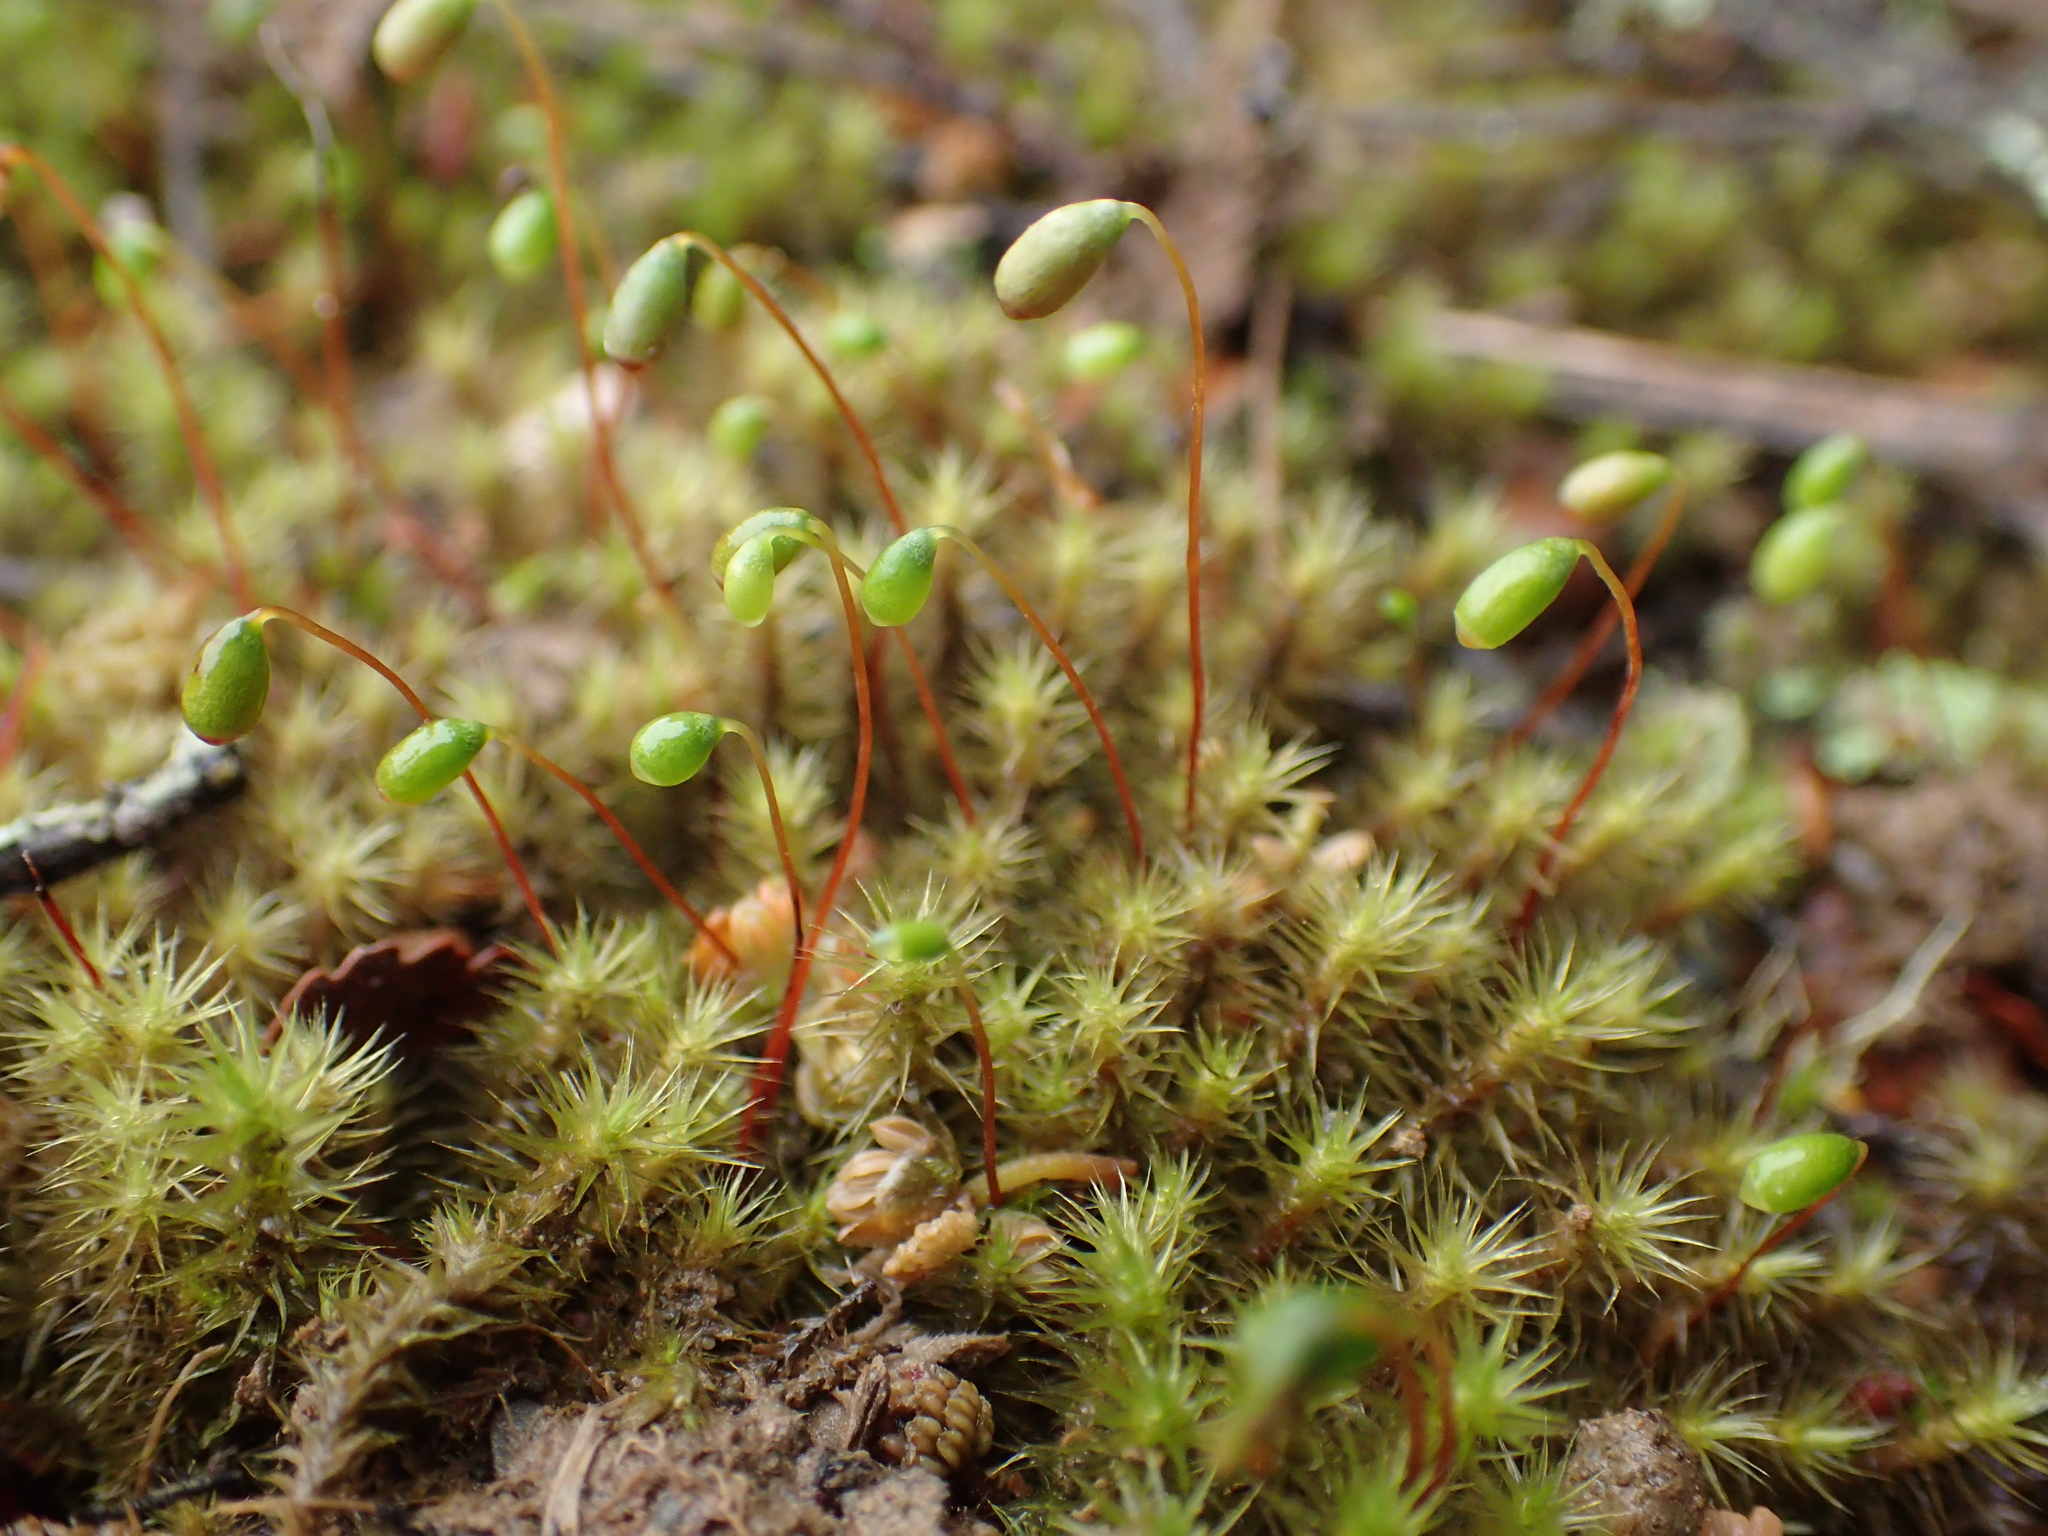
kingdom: Plantae
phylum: Bryophyta
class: Bryopsida
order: Bartramiales
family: Bartramiaceae
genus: Breutelia
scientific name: Breutelia pendula
